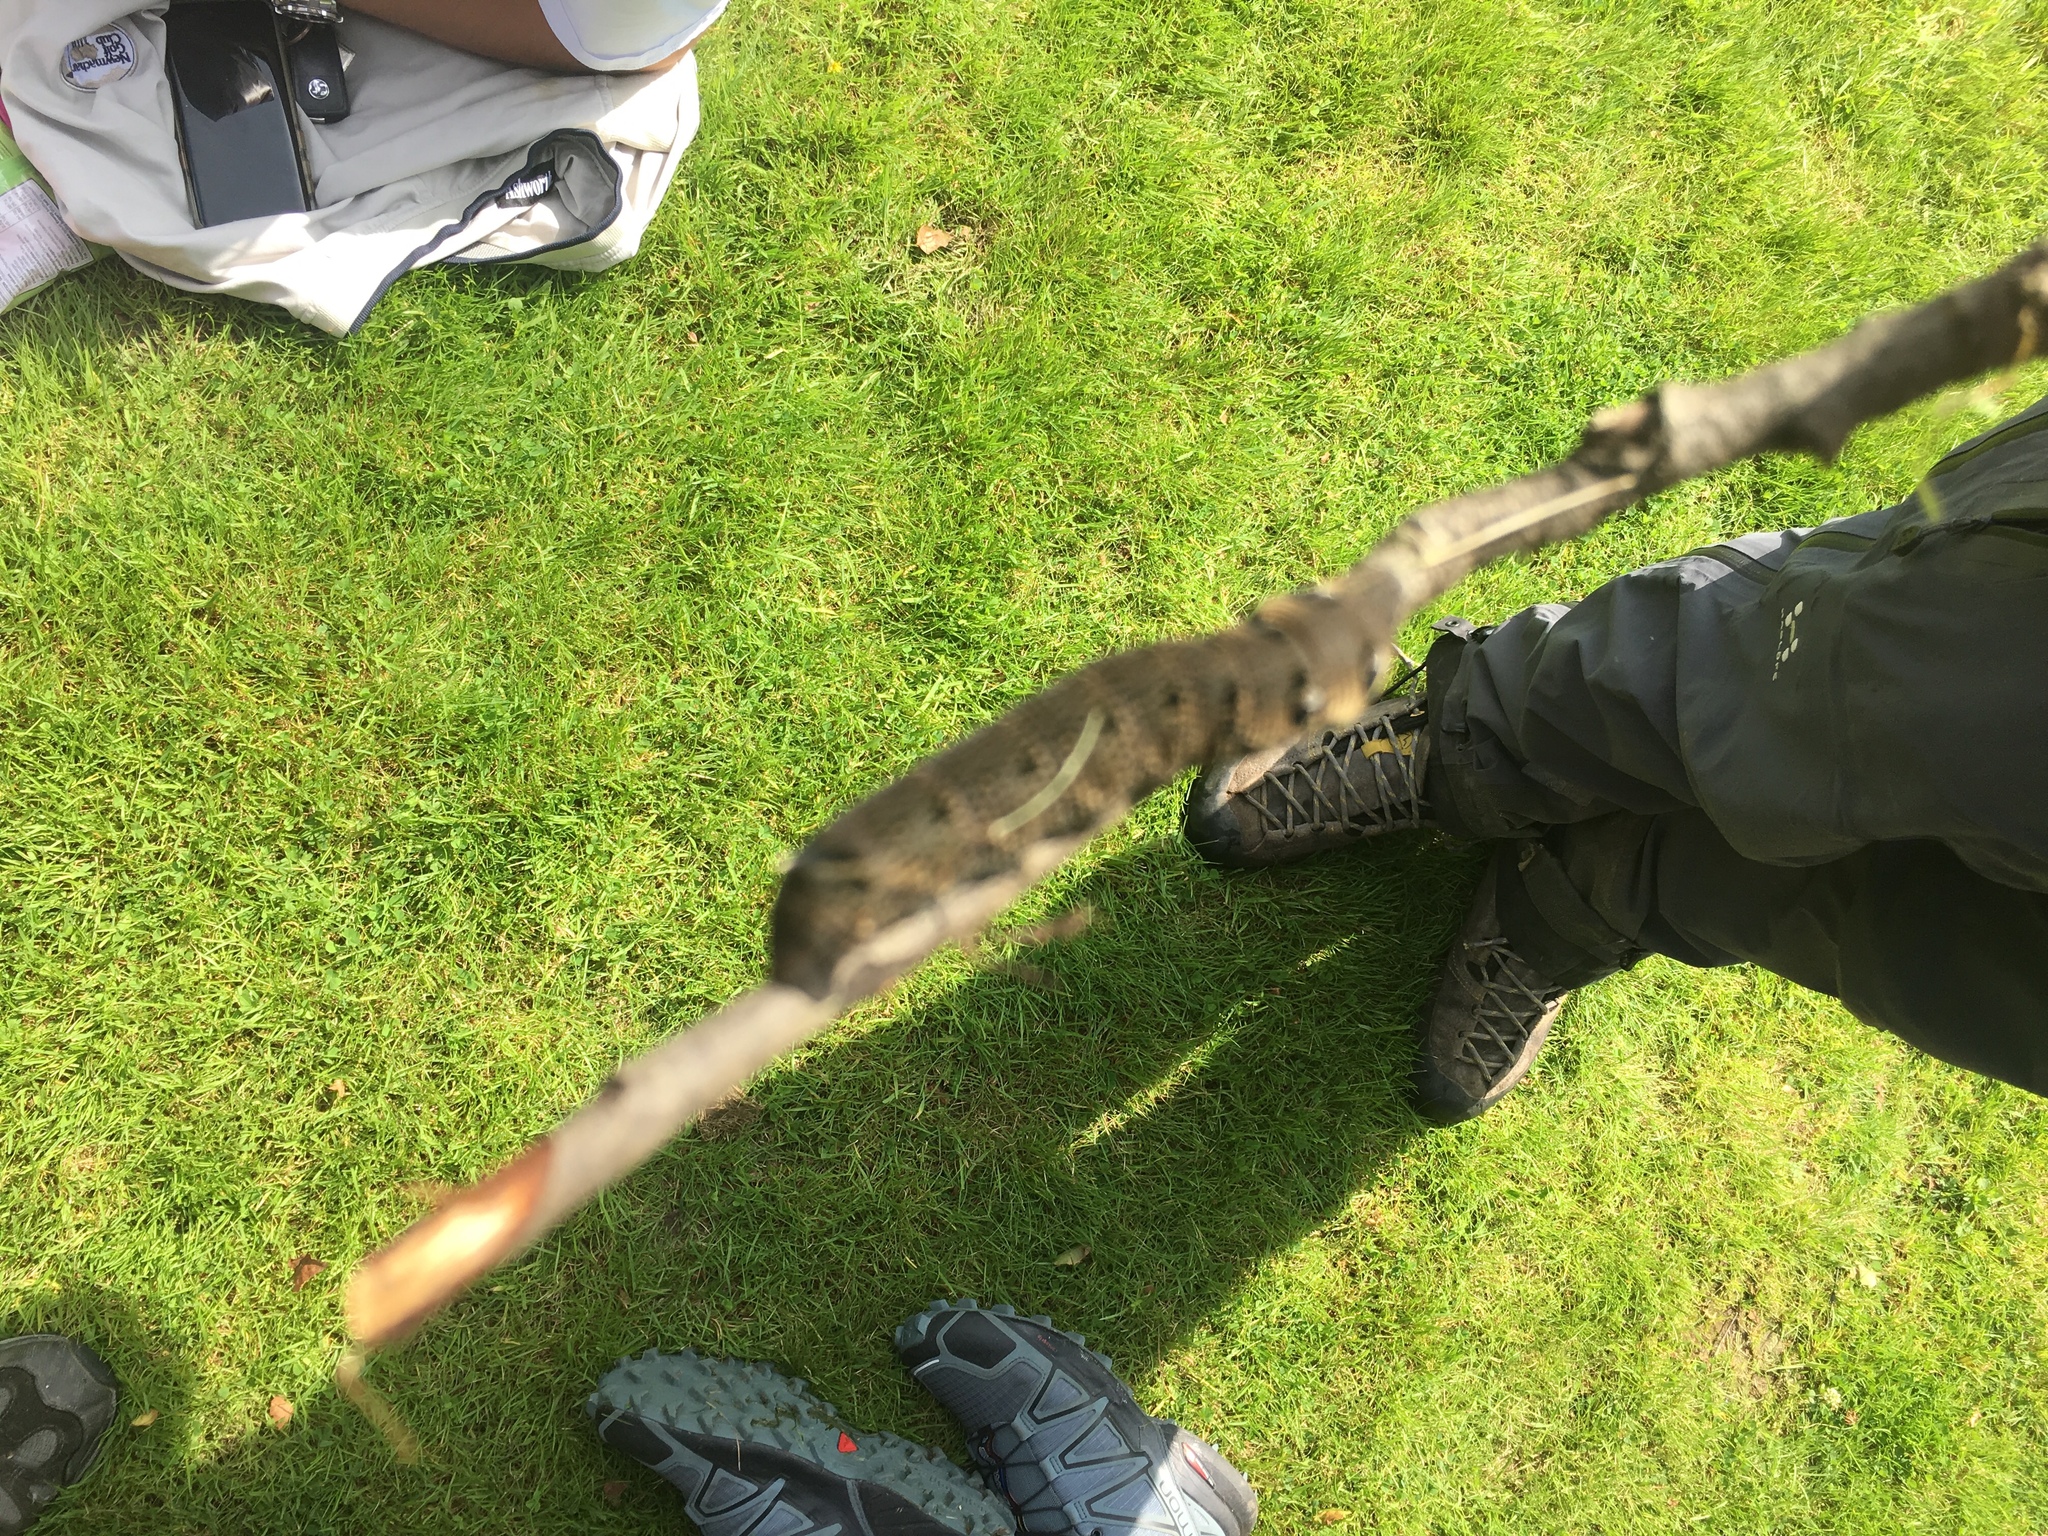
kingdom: Animalia
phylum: Arthropoda
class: Insecta
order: Lepidoptera
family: Sphingidae
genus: Deilephila
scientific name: Deilephila elpenor
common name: Elephant hawk-moth
